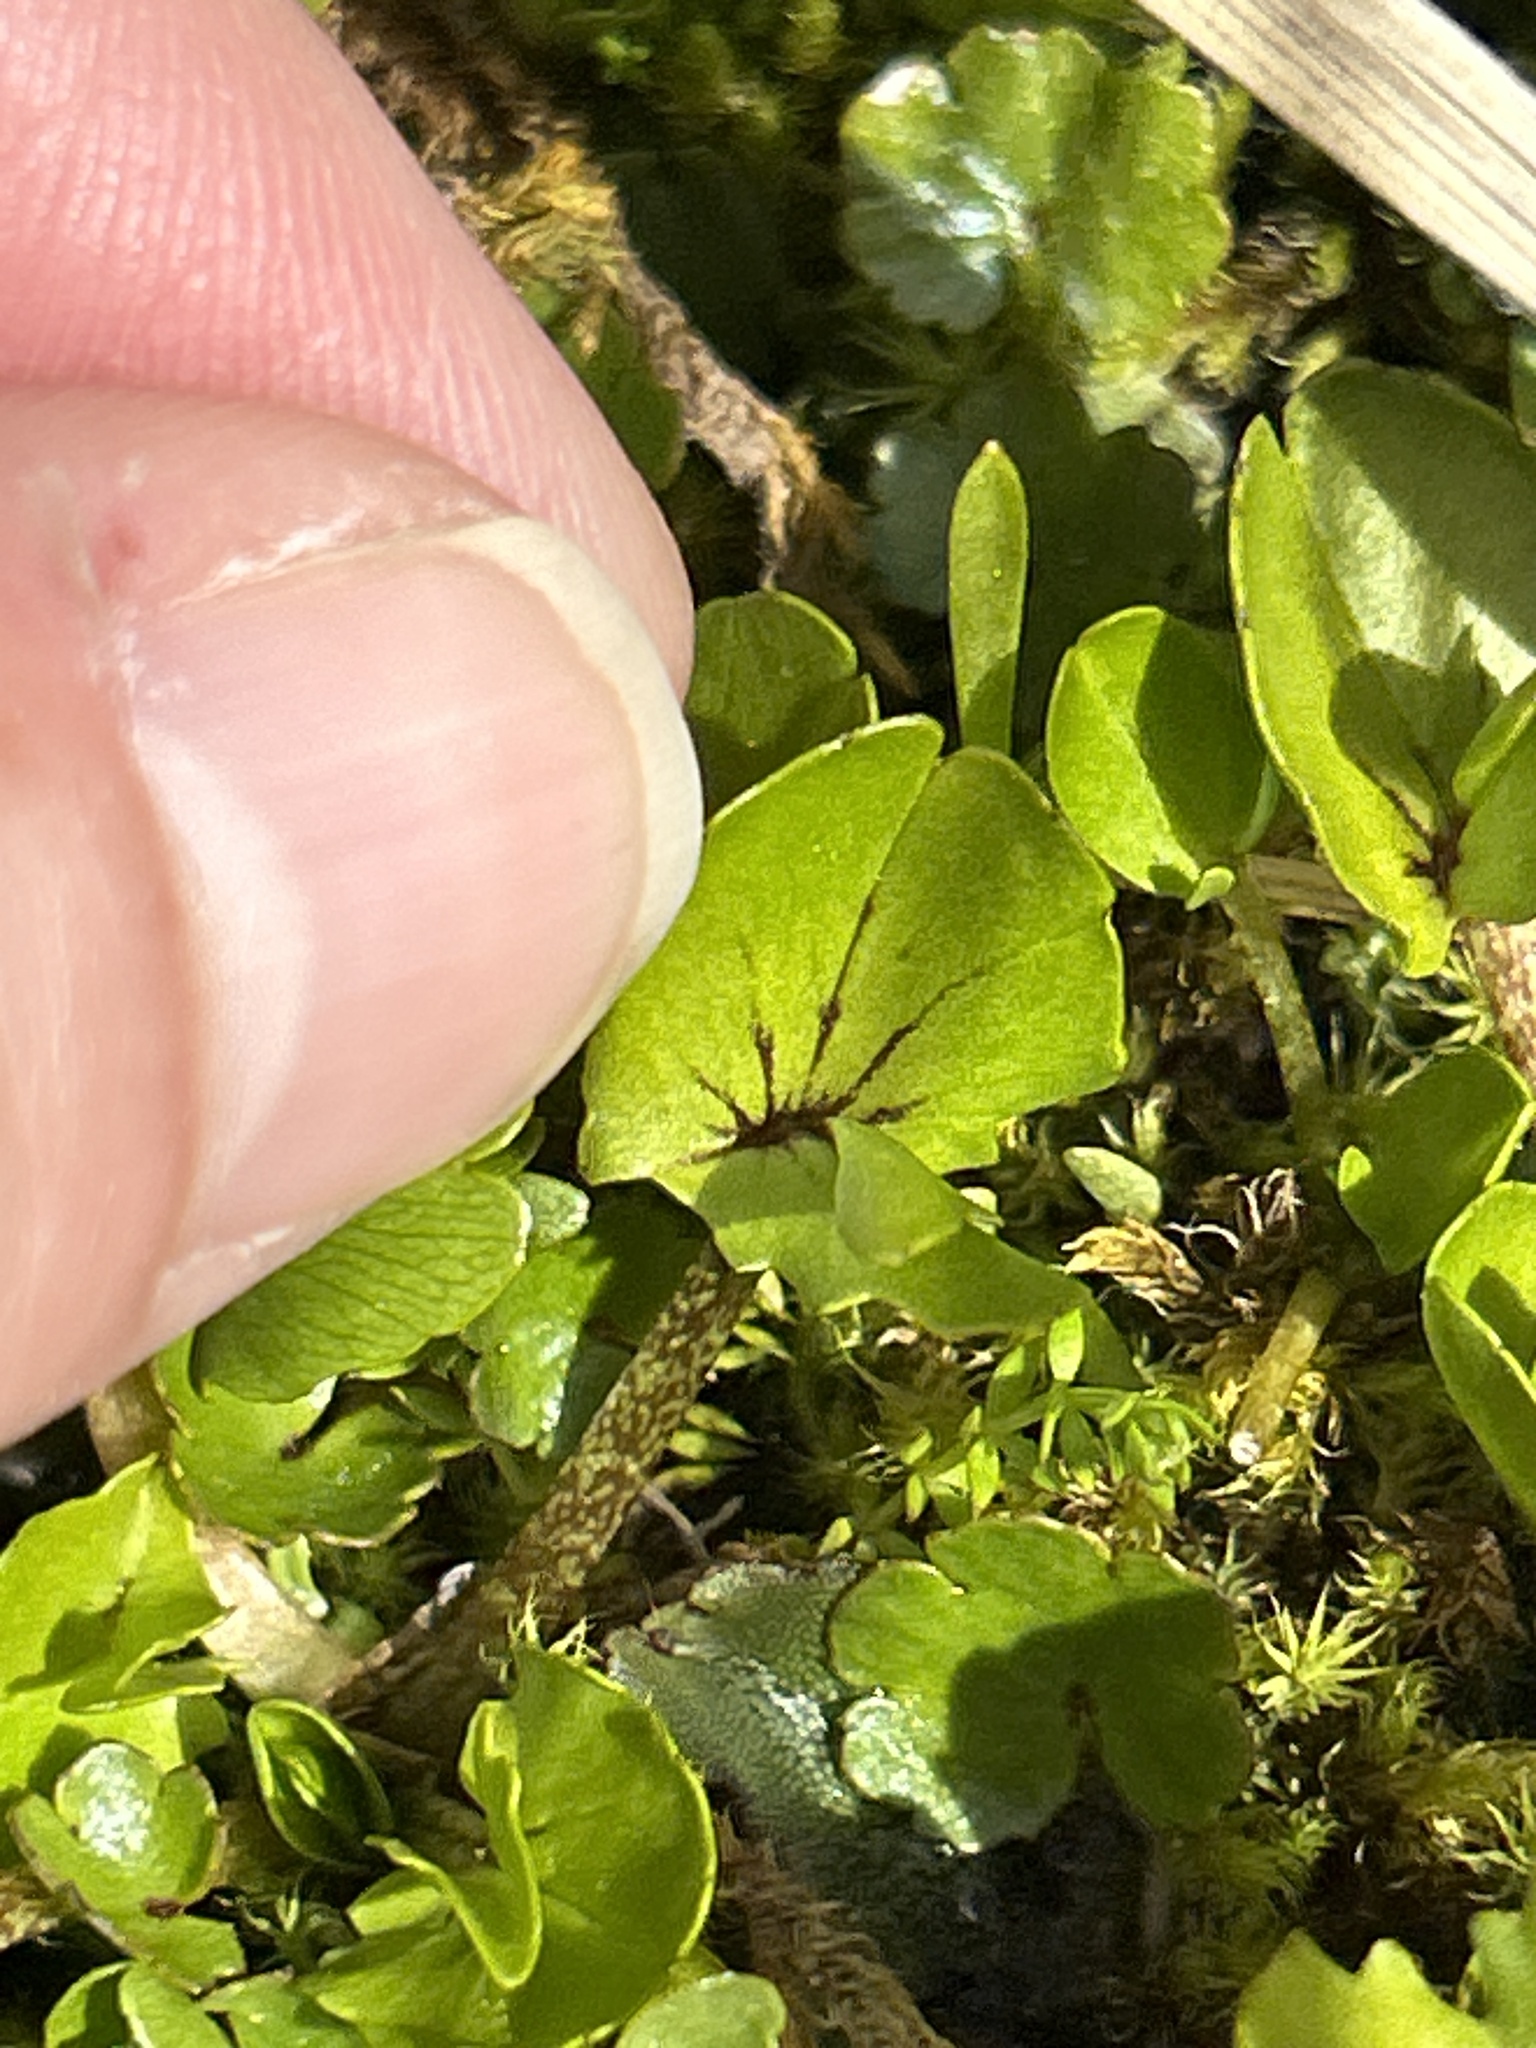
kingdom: Plantae
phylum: Tracheophyta
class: Magnoliopsida
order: Ranunculales
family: Ranunculaceae
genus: Caltha
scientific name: Caltha obtusa
